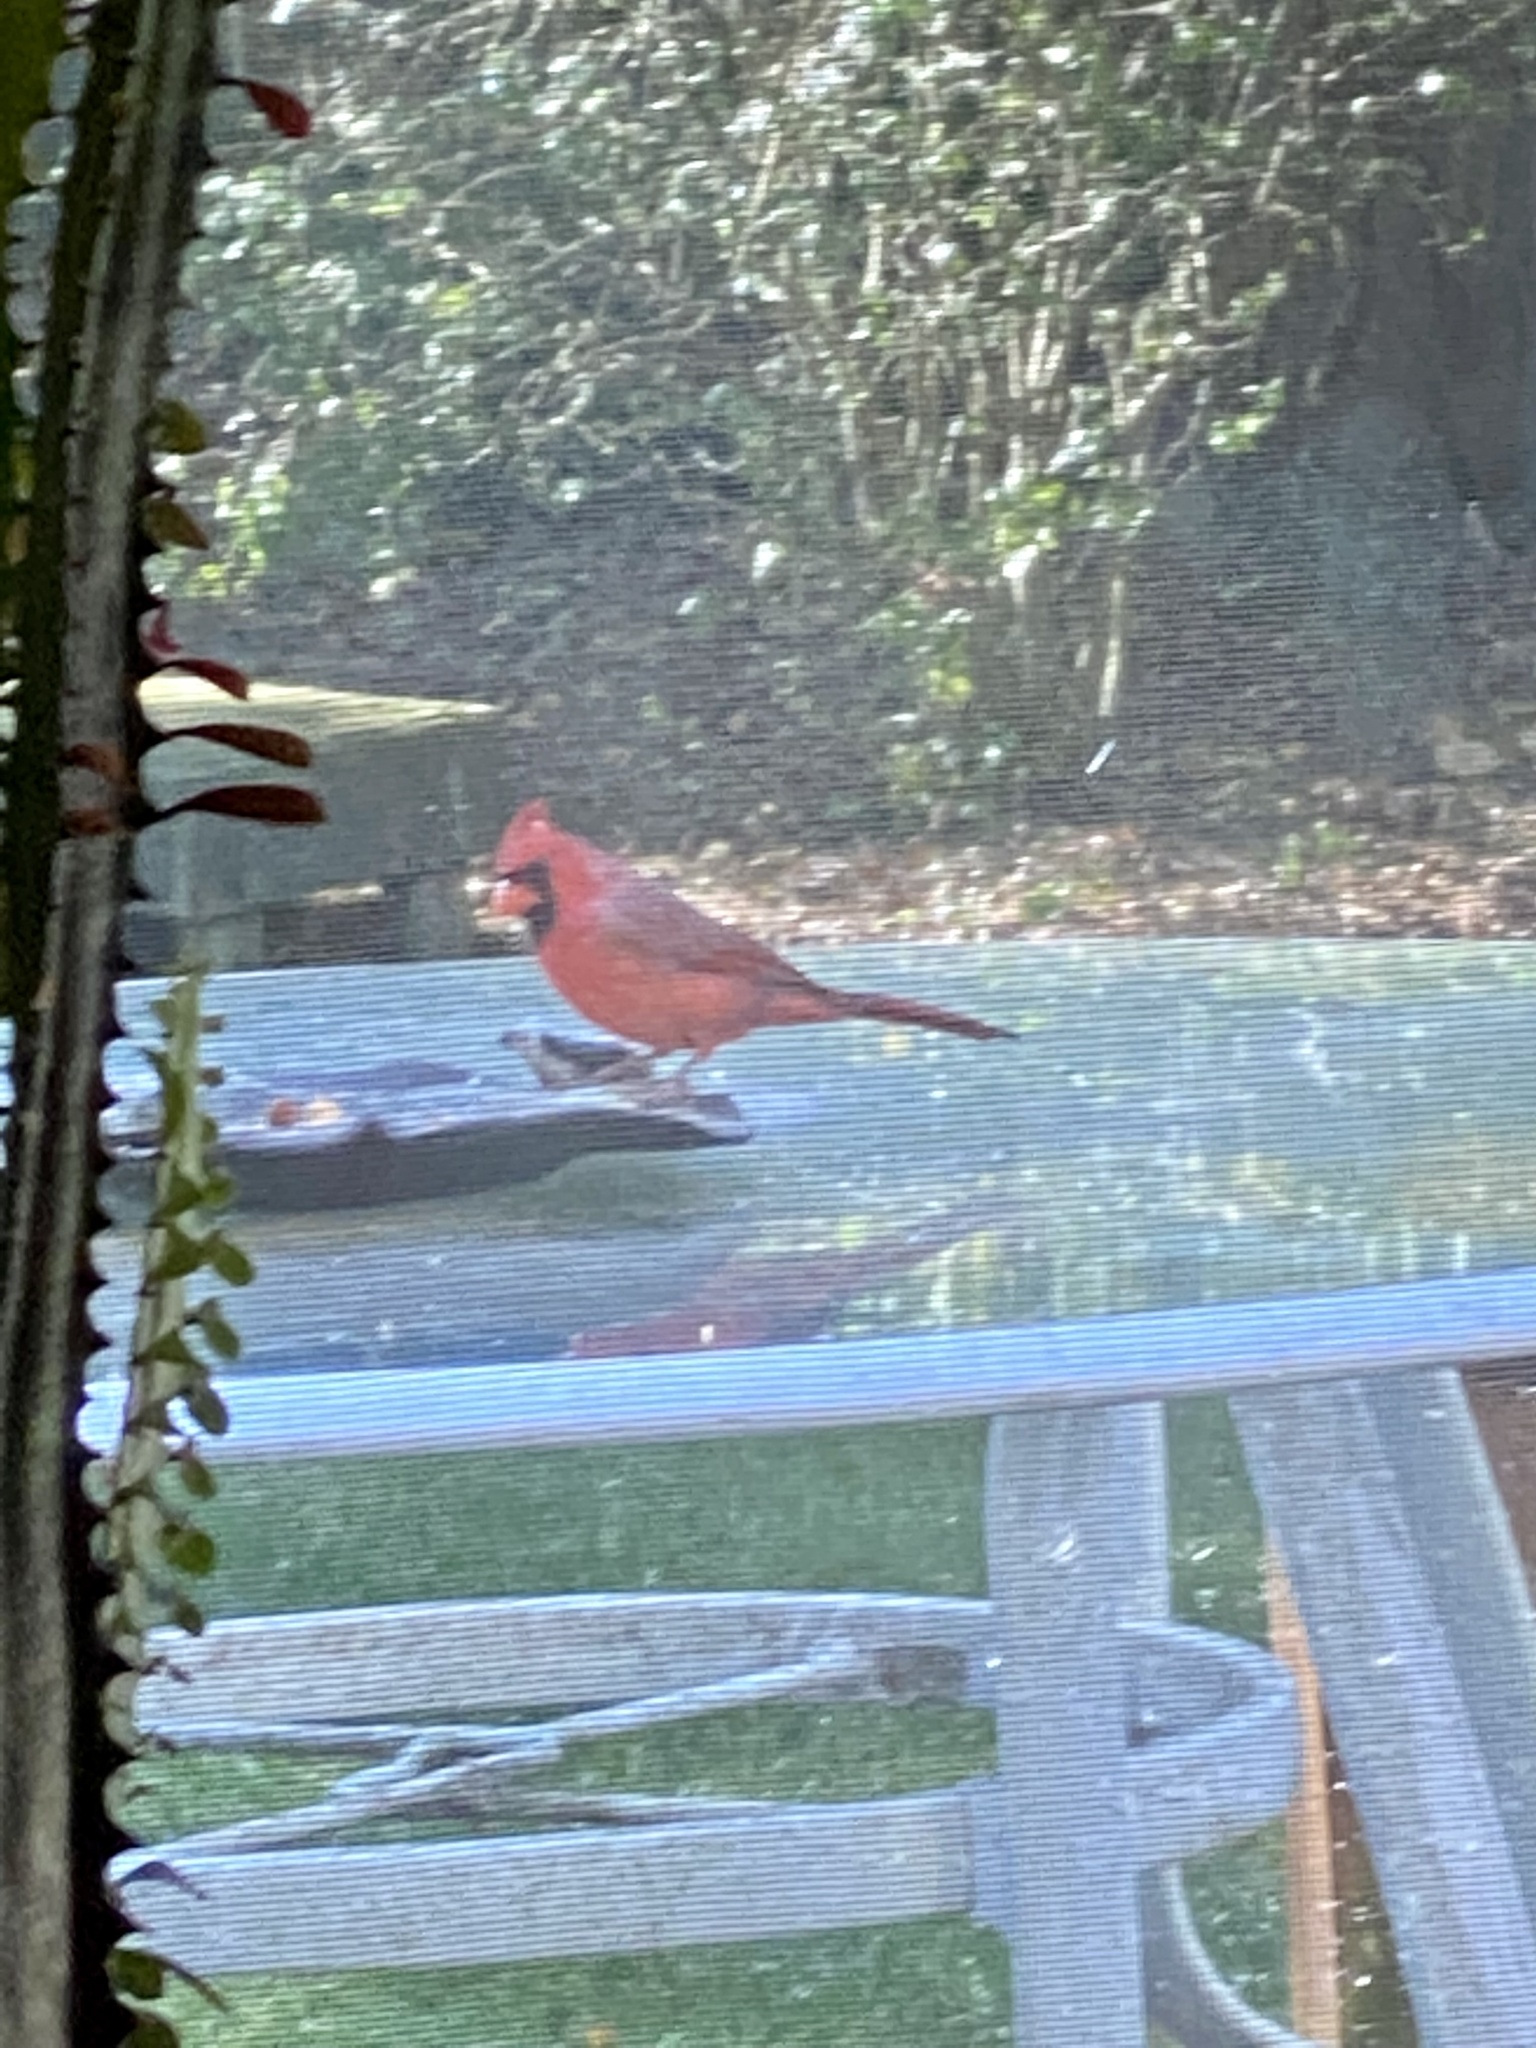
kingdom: Animalia
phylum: Chordata
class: Aves
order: Passeriformes
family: Cardinalidae
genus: Cardinalis
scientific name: Cardinalis cardinalis
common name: Northern cardinal
